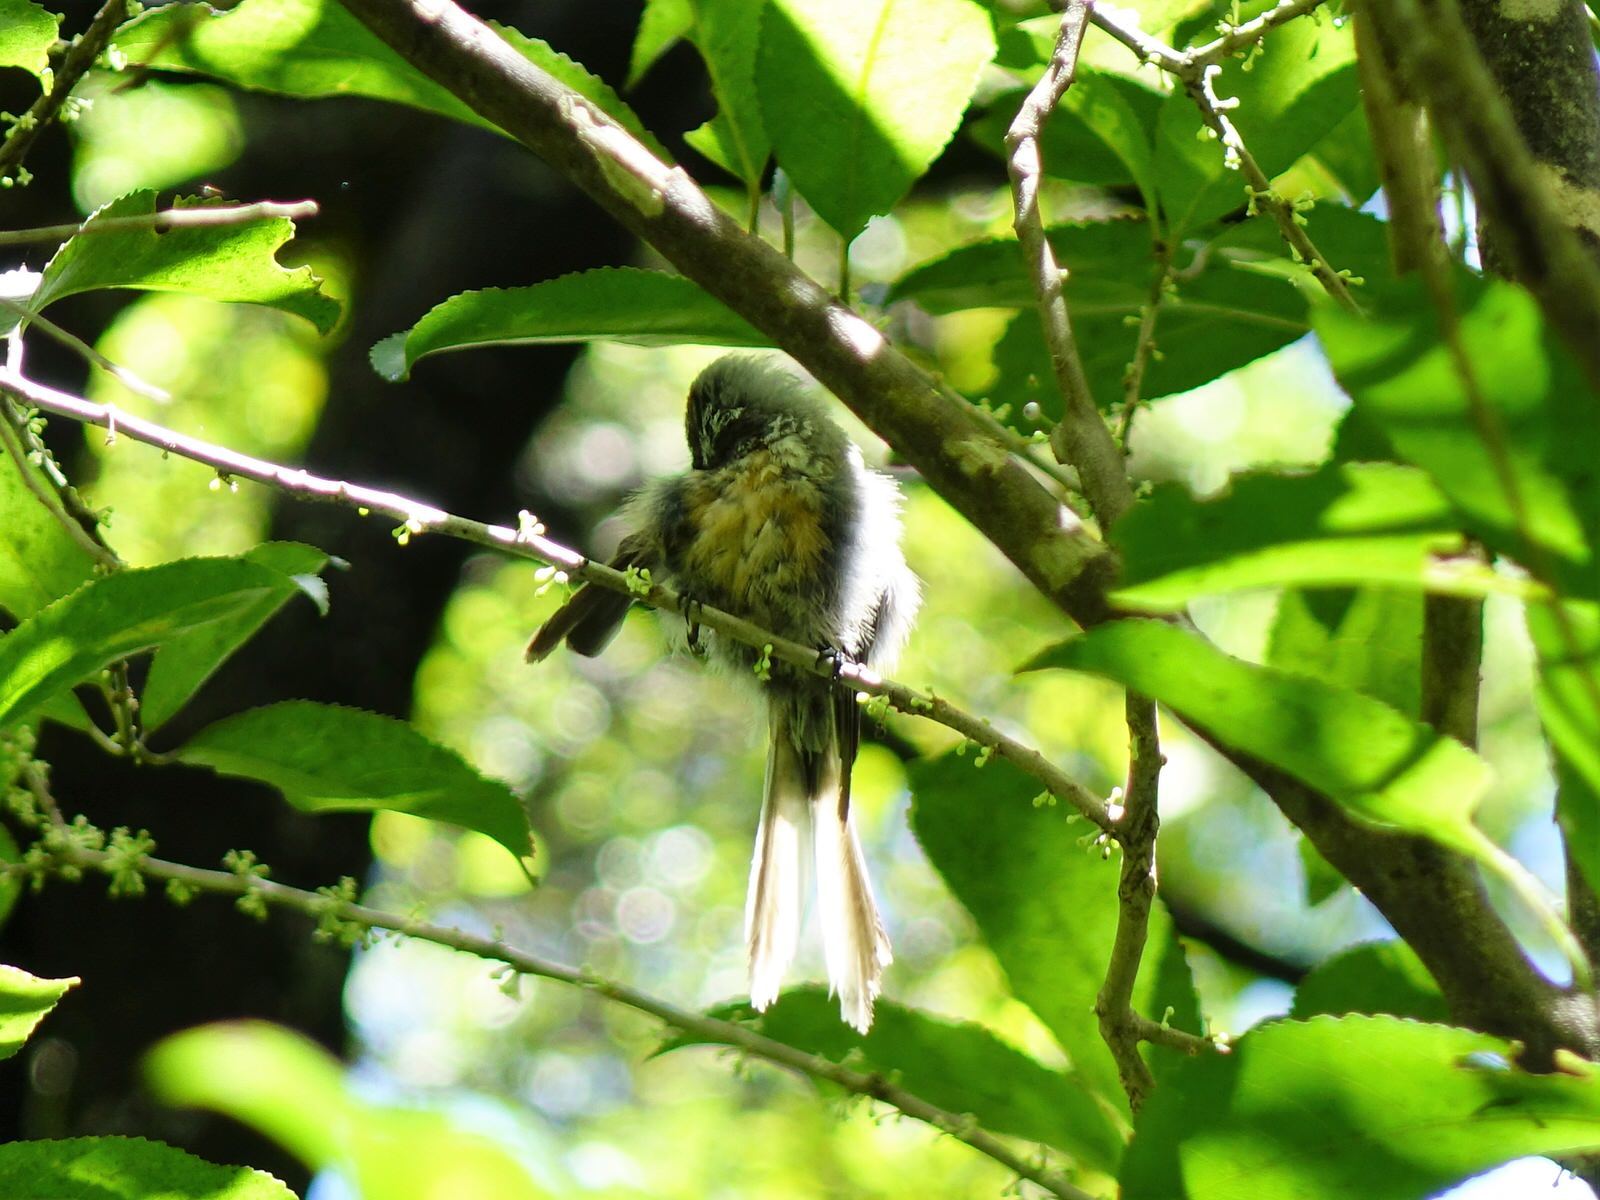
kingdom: Animalia
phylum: Chordata
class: Aves
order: Passeriformes
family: Rhipiduridae
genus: Rhipidura
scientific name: Rhipidura fuliginosa
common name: New zealand fantail
